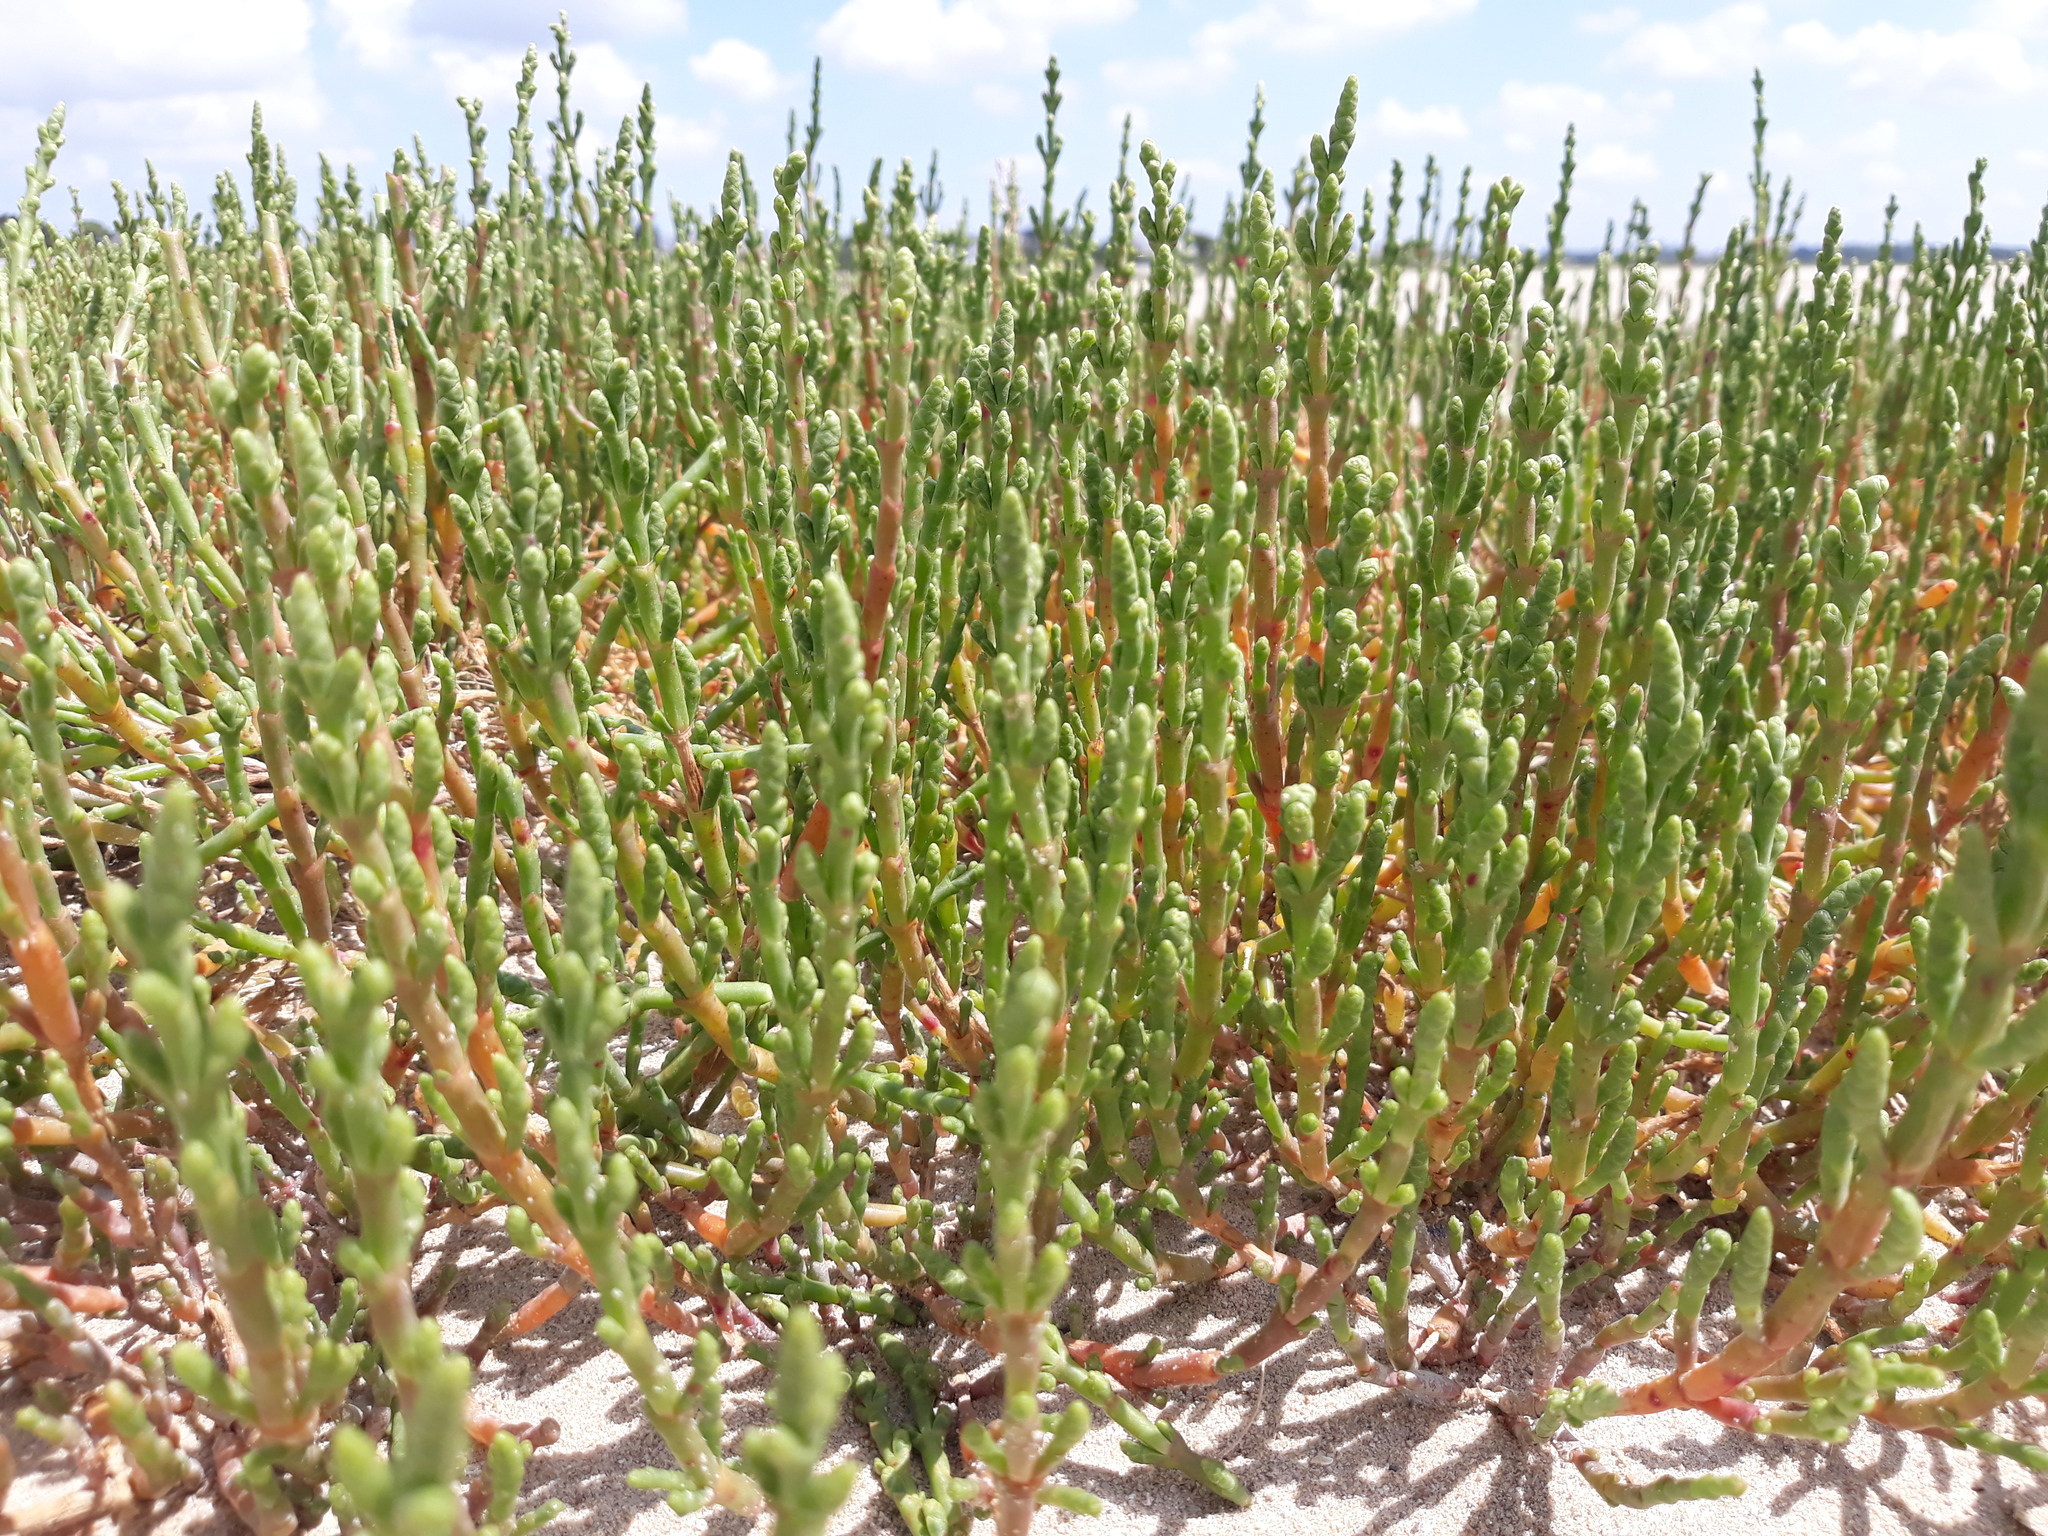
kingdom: Plantae
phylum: Tracheophyta
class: Magnoliopsida
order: Caryophyllales
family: Amaranthaceae
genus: Salicornia
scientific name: Salicornia europaea
